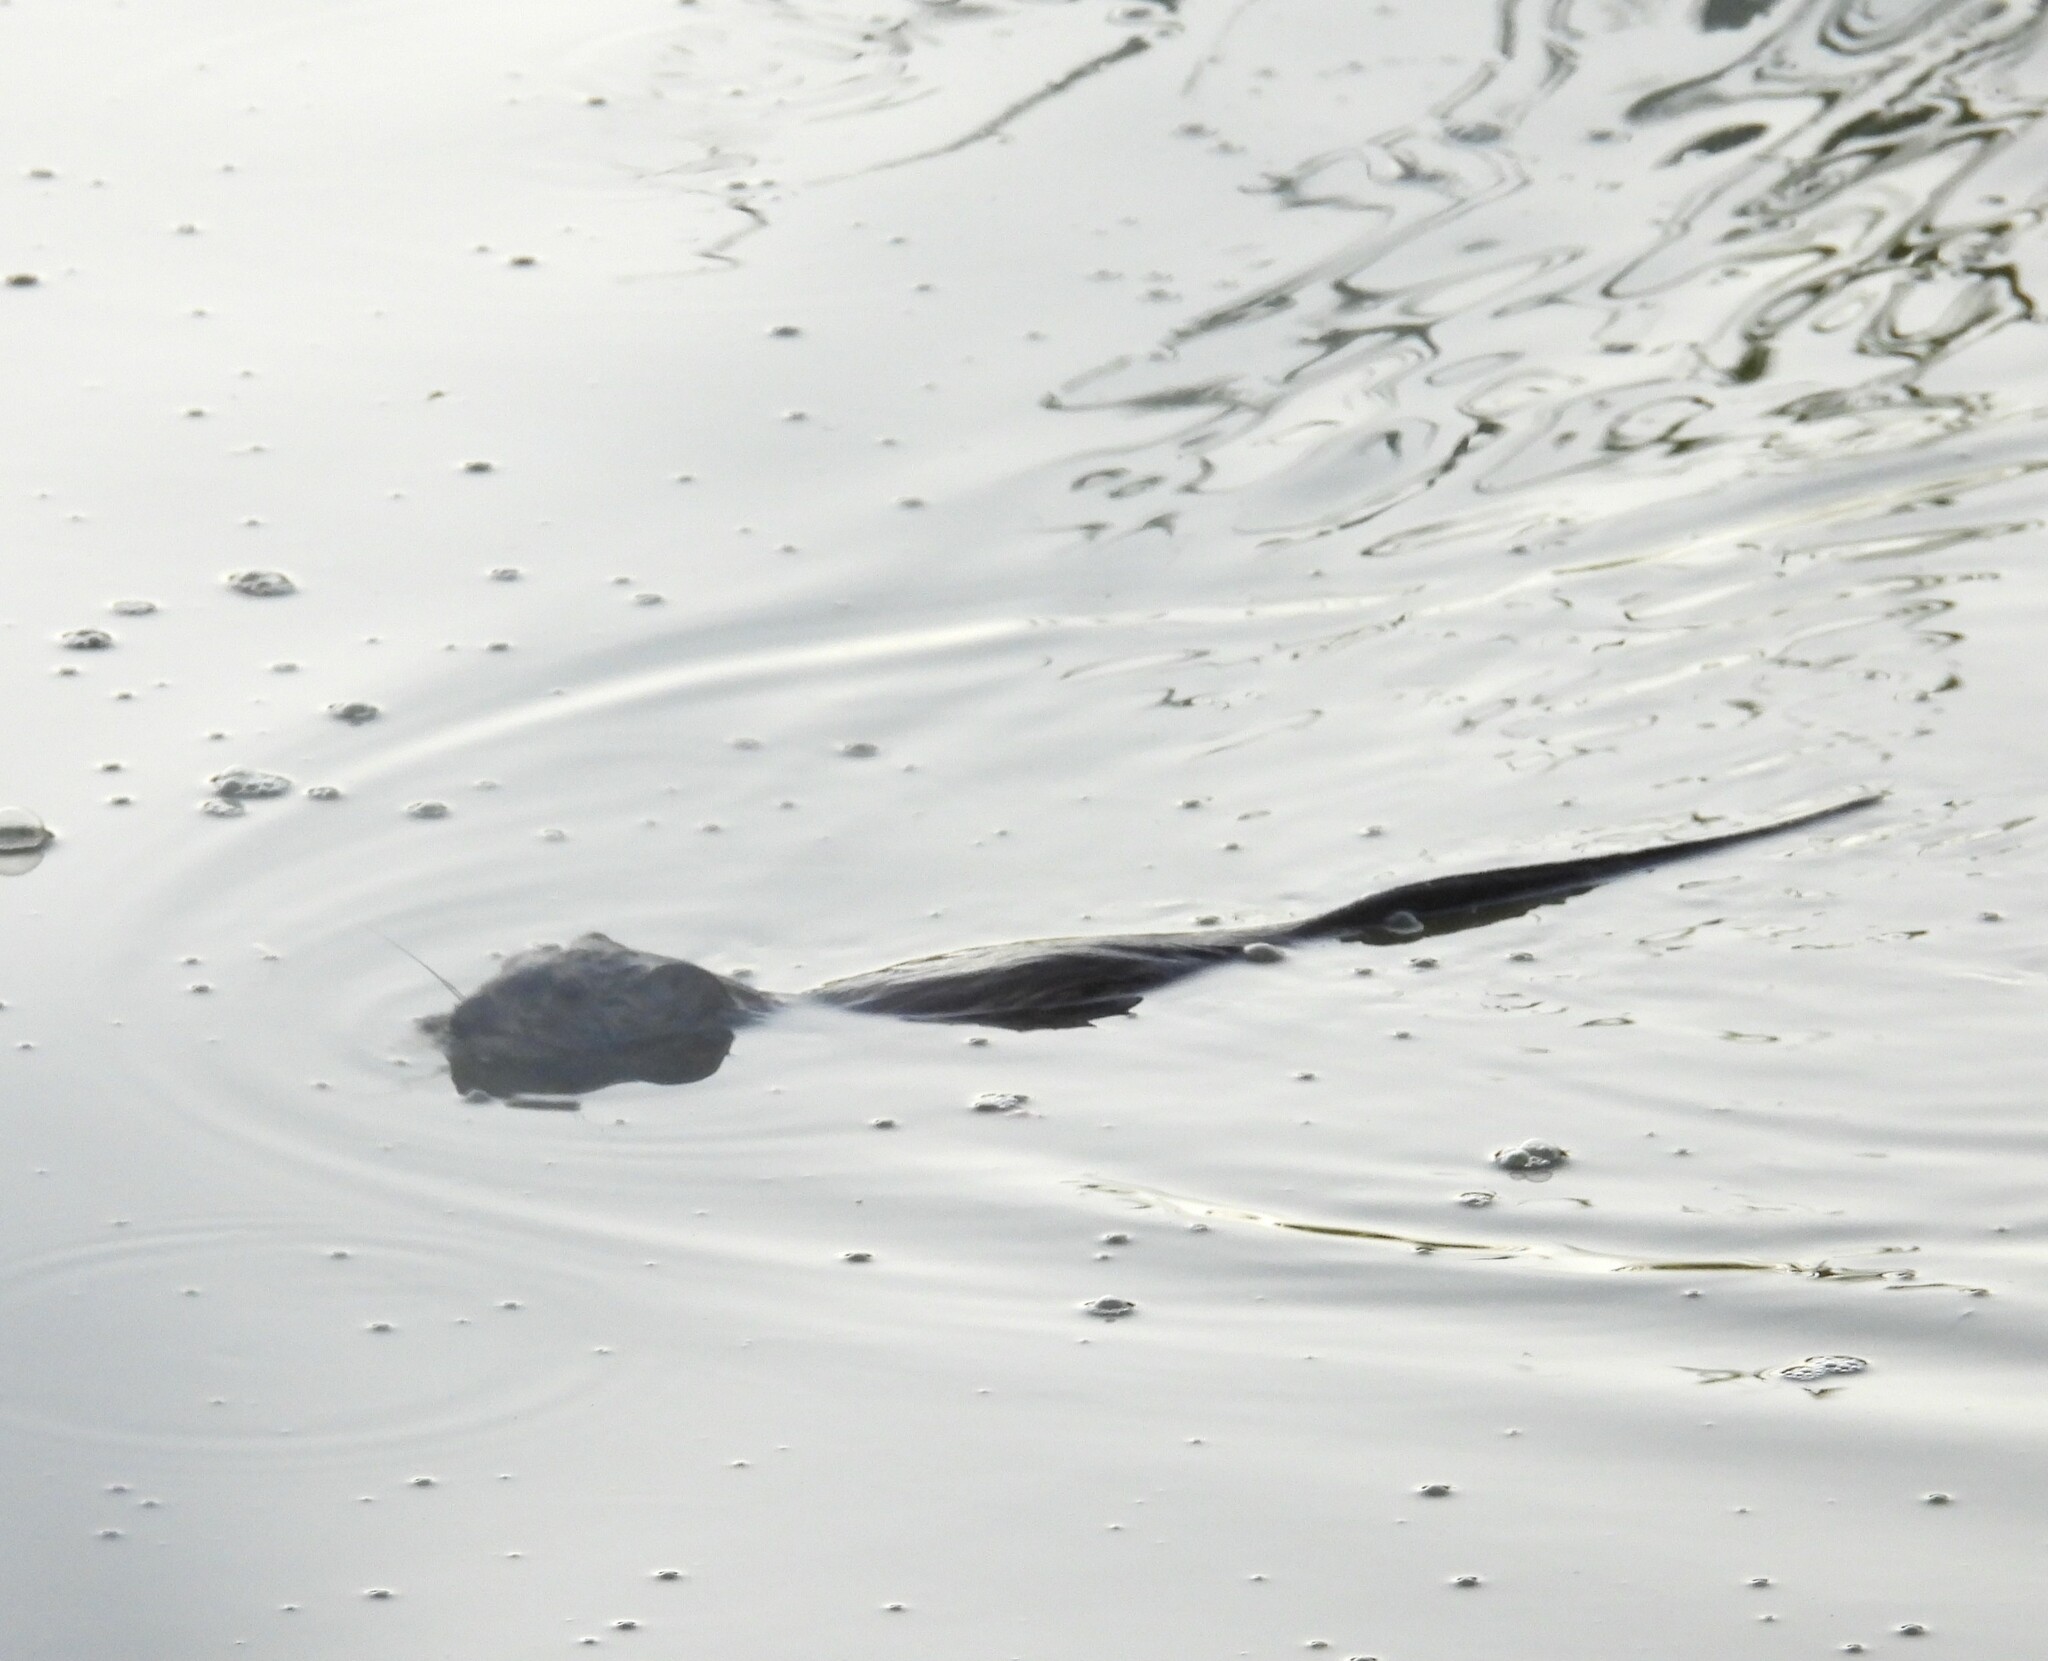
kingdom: Animalia
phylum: Chordata
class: Mammalia
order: Rodentia
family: Cricetidae
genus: Ondatra
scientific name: Ondatra zibethicus
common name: Muskrat
